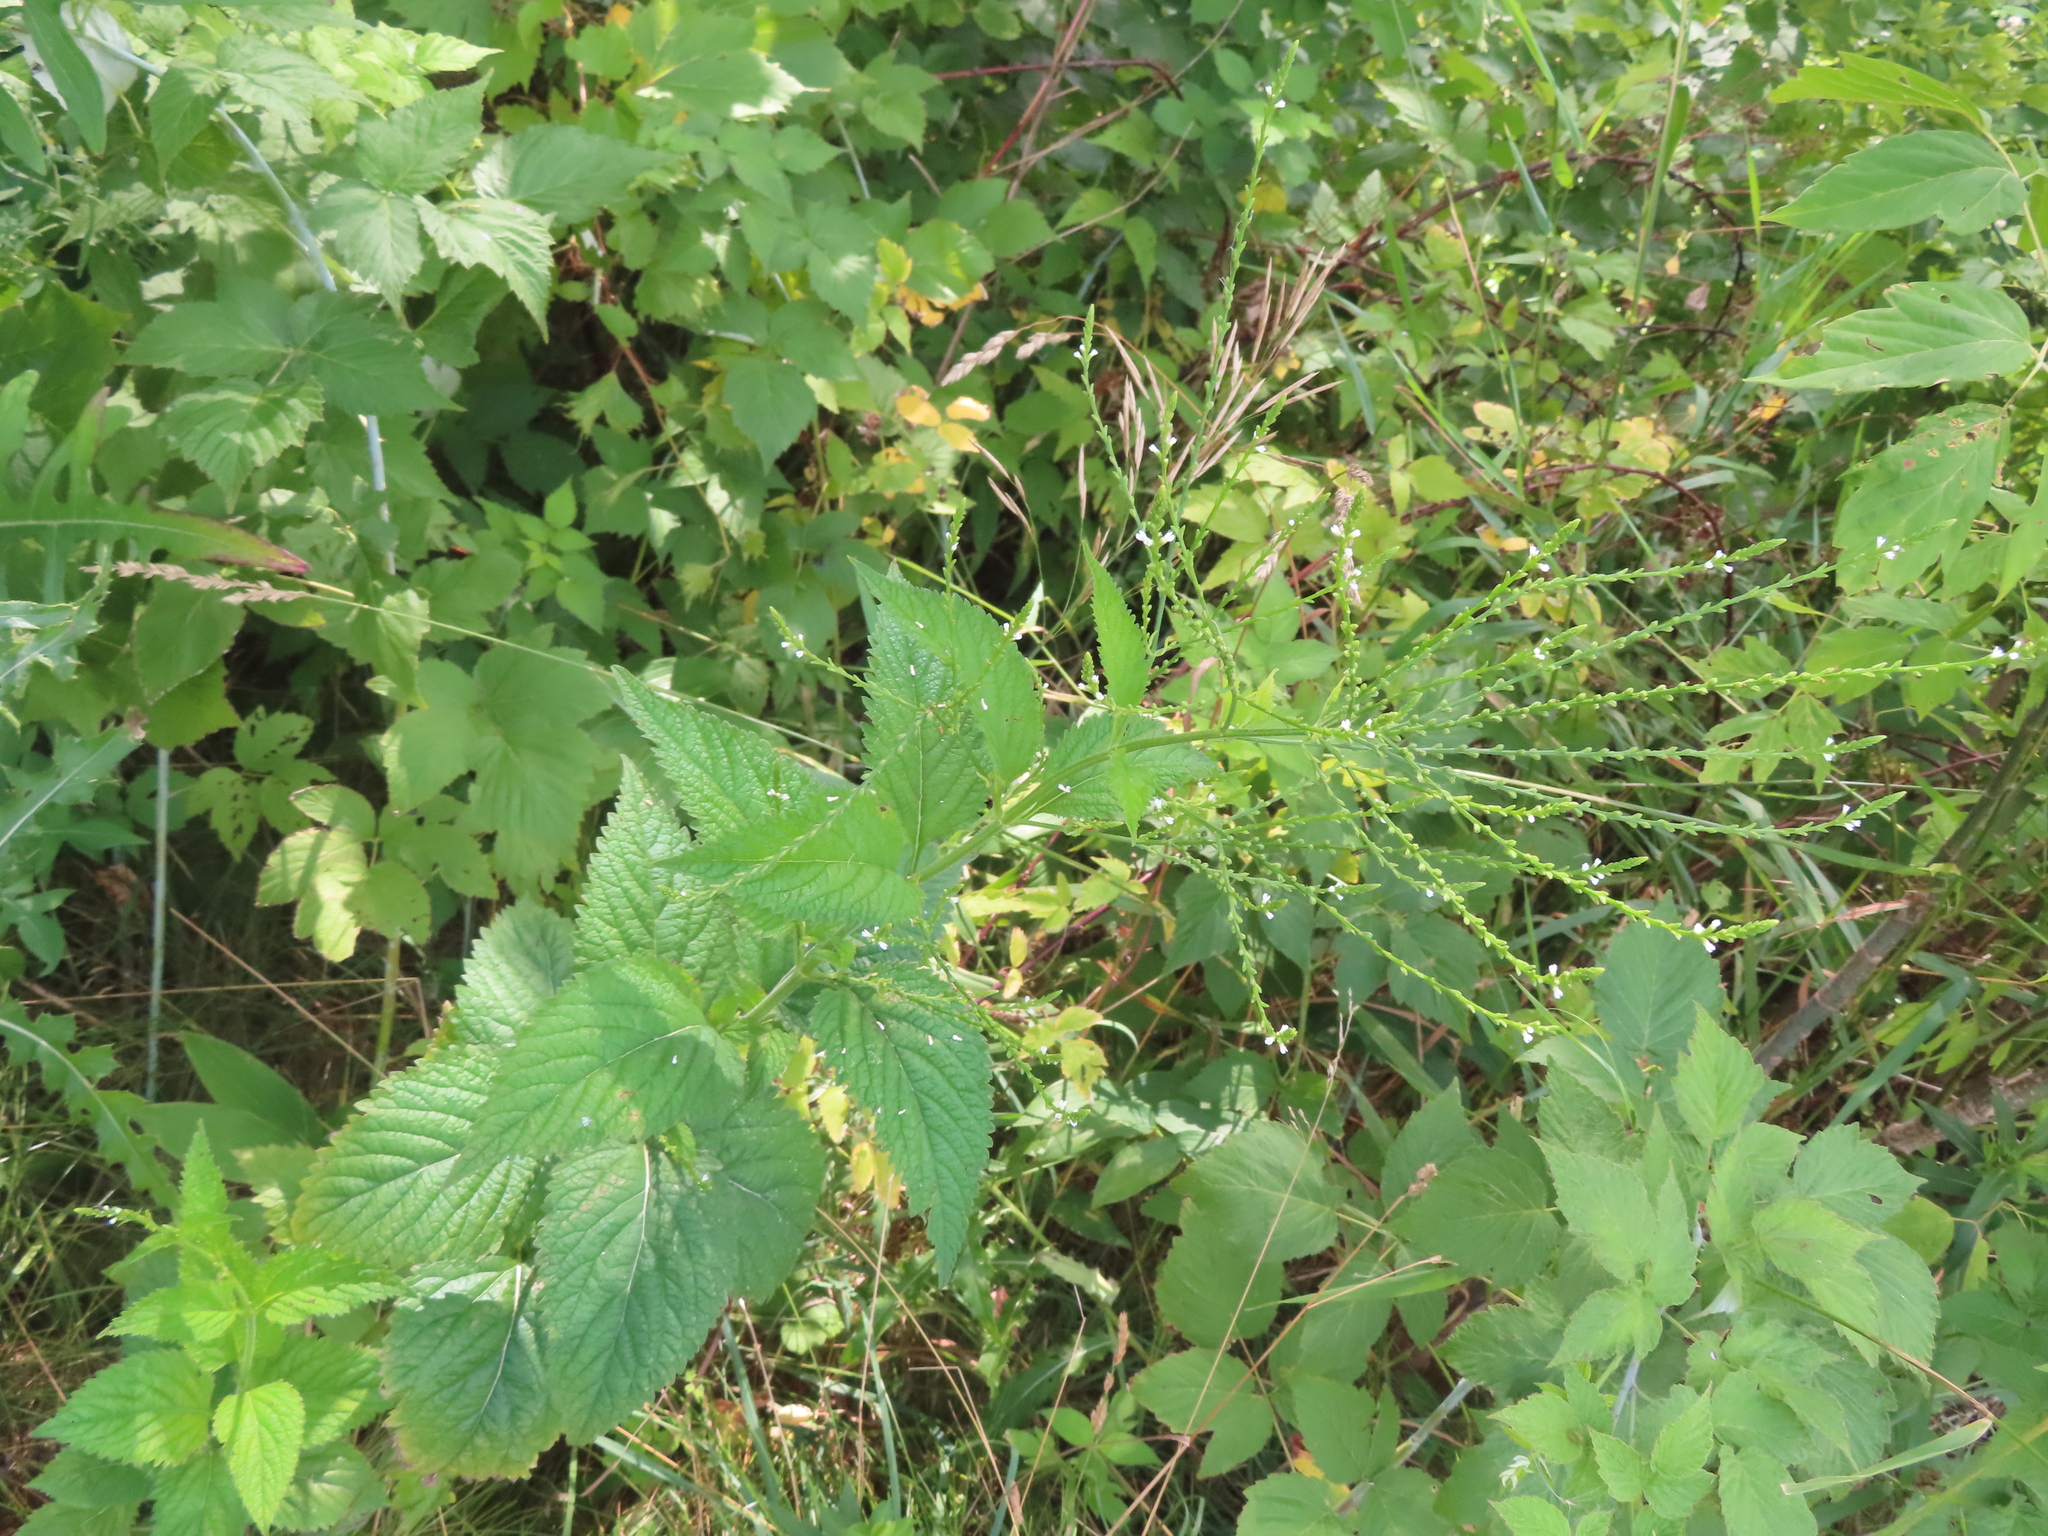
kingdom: Plantae
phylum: Tracheophyta
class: Magnoliopsida
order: Lamiales
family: Verbenaceae
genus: Verbena
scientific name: Verbena urticifolia
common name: Nettle-leaved vervain
